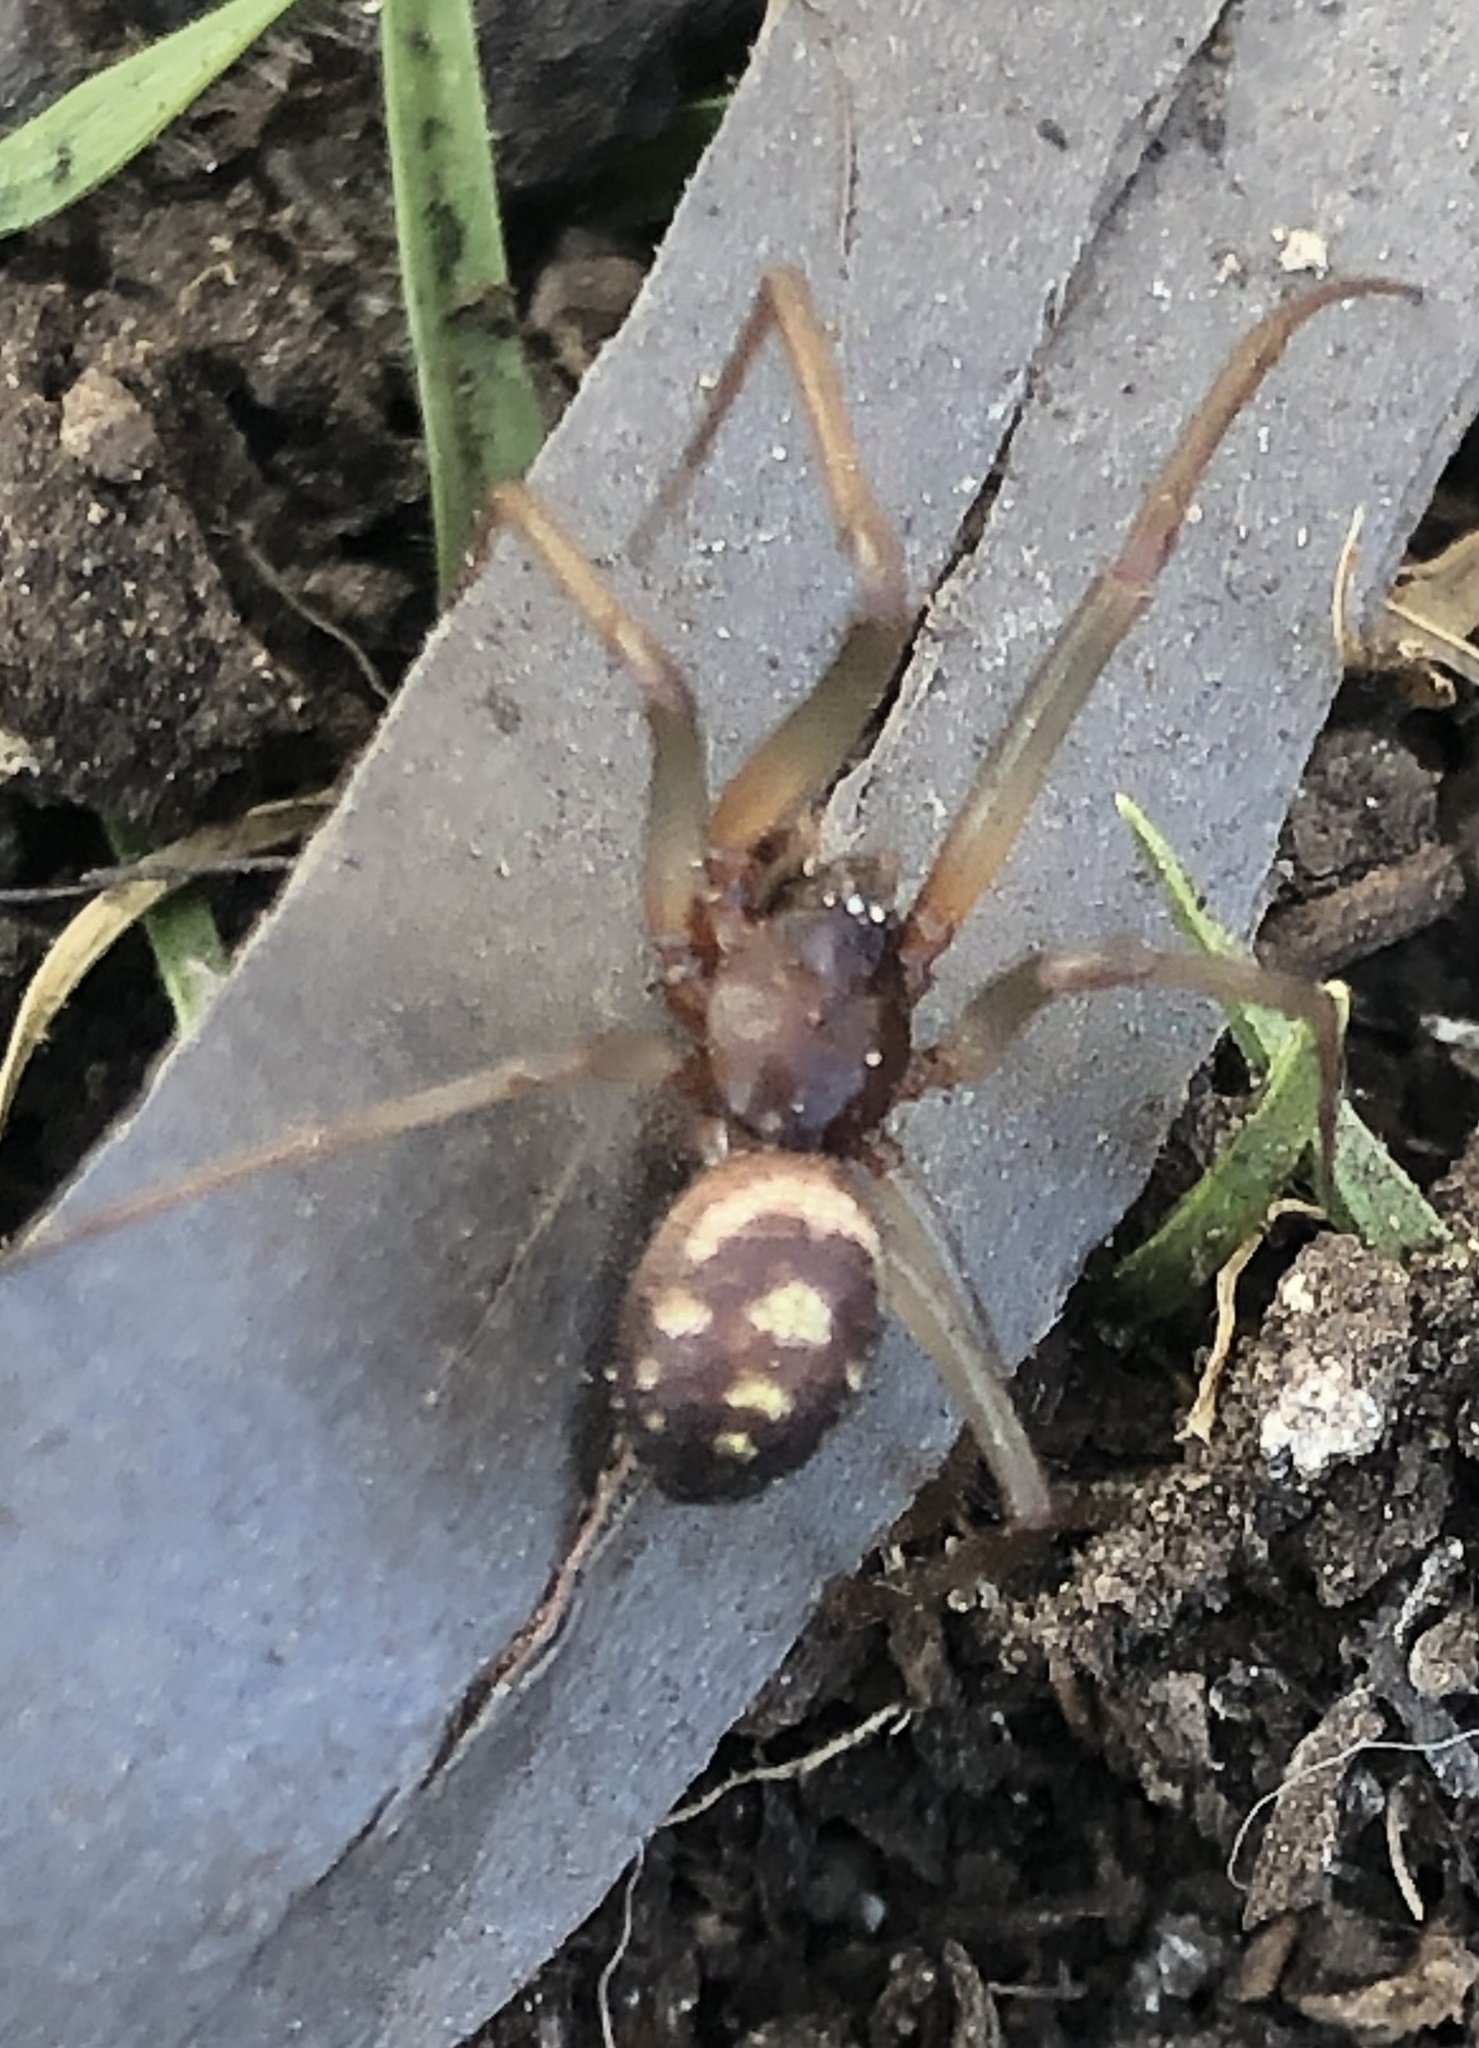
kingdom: Animalia
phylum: Arthropoda
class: Arachnida
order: Araneae
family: Theridiidae
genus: Steatoda
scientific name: Steatoda grossa
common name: False black widow
